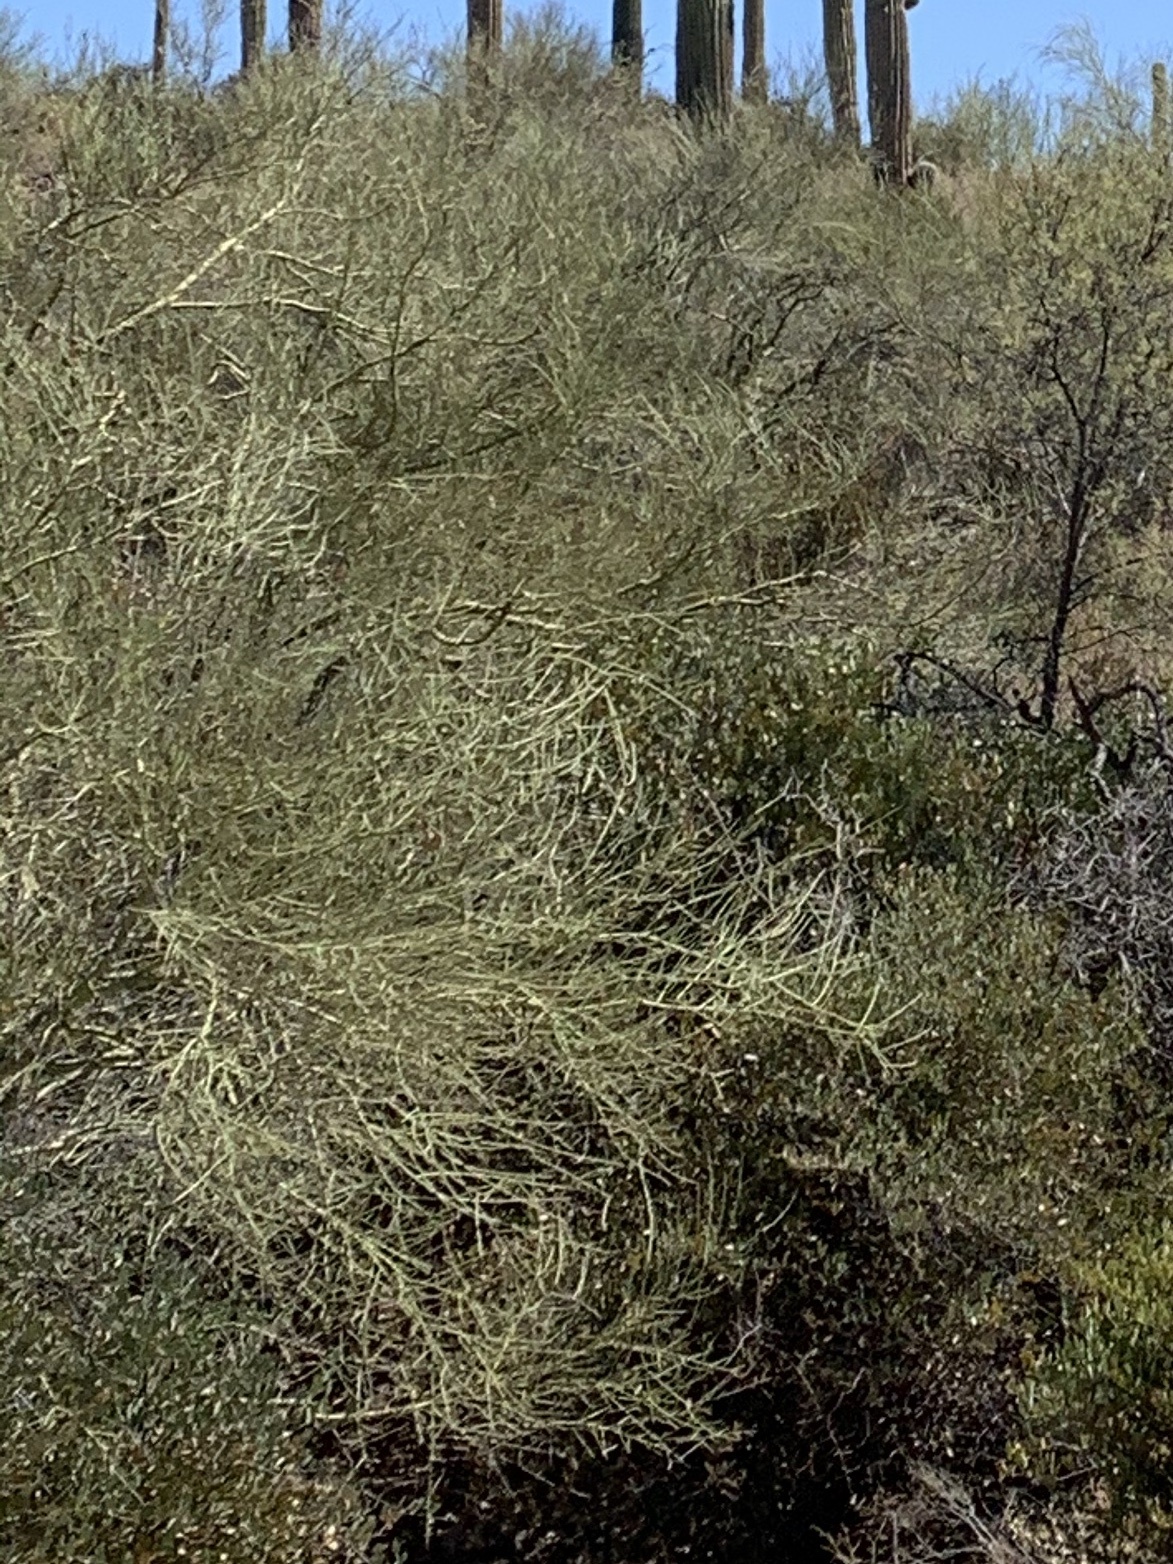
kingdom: Plantae
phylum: Tracheophyta
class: Magnoliopsida
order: Fabales
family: Fabaceae
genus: Parkinsonia
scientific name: Parkinsonia microphylla
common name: Yellow paloverde
